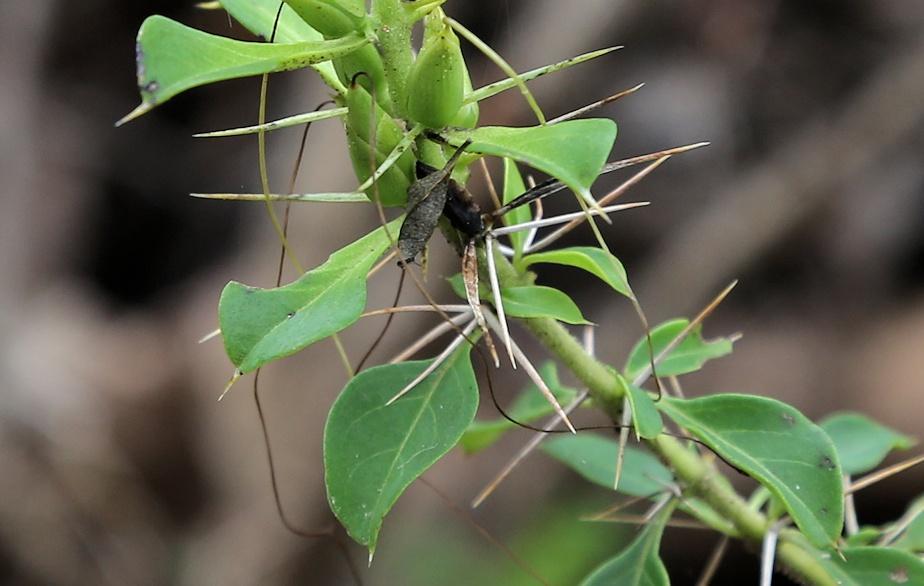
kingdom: Plantae
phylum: Tracheophyta
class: Magnoliopsida
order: Lamiales
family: Acanthaceae
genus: Barleria
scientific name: Barleria rotundifolia
